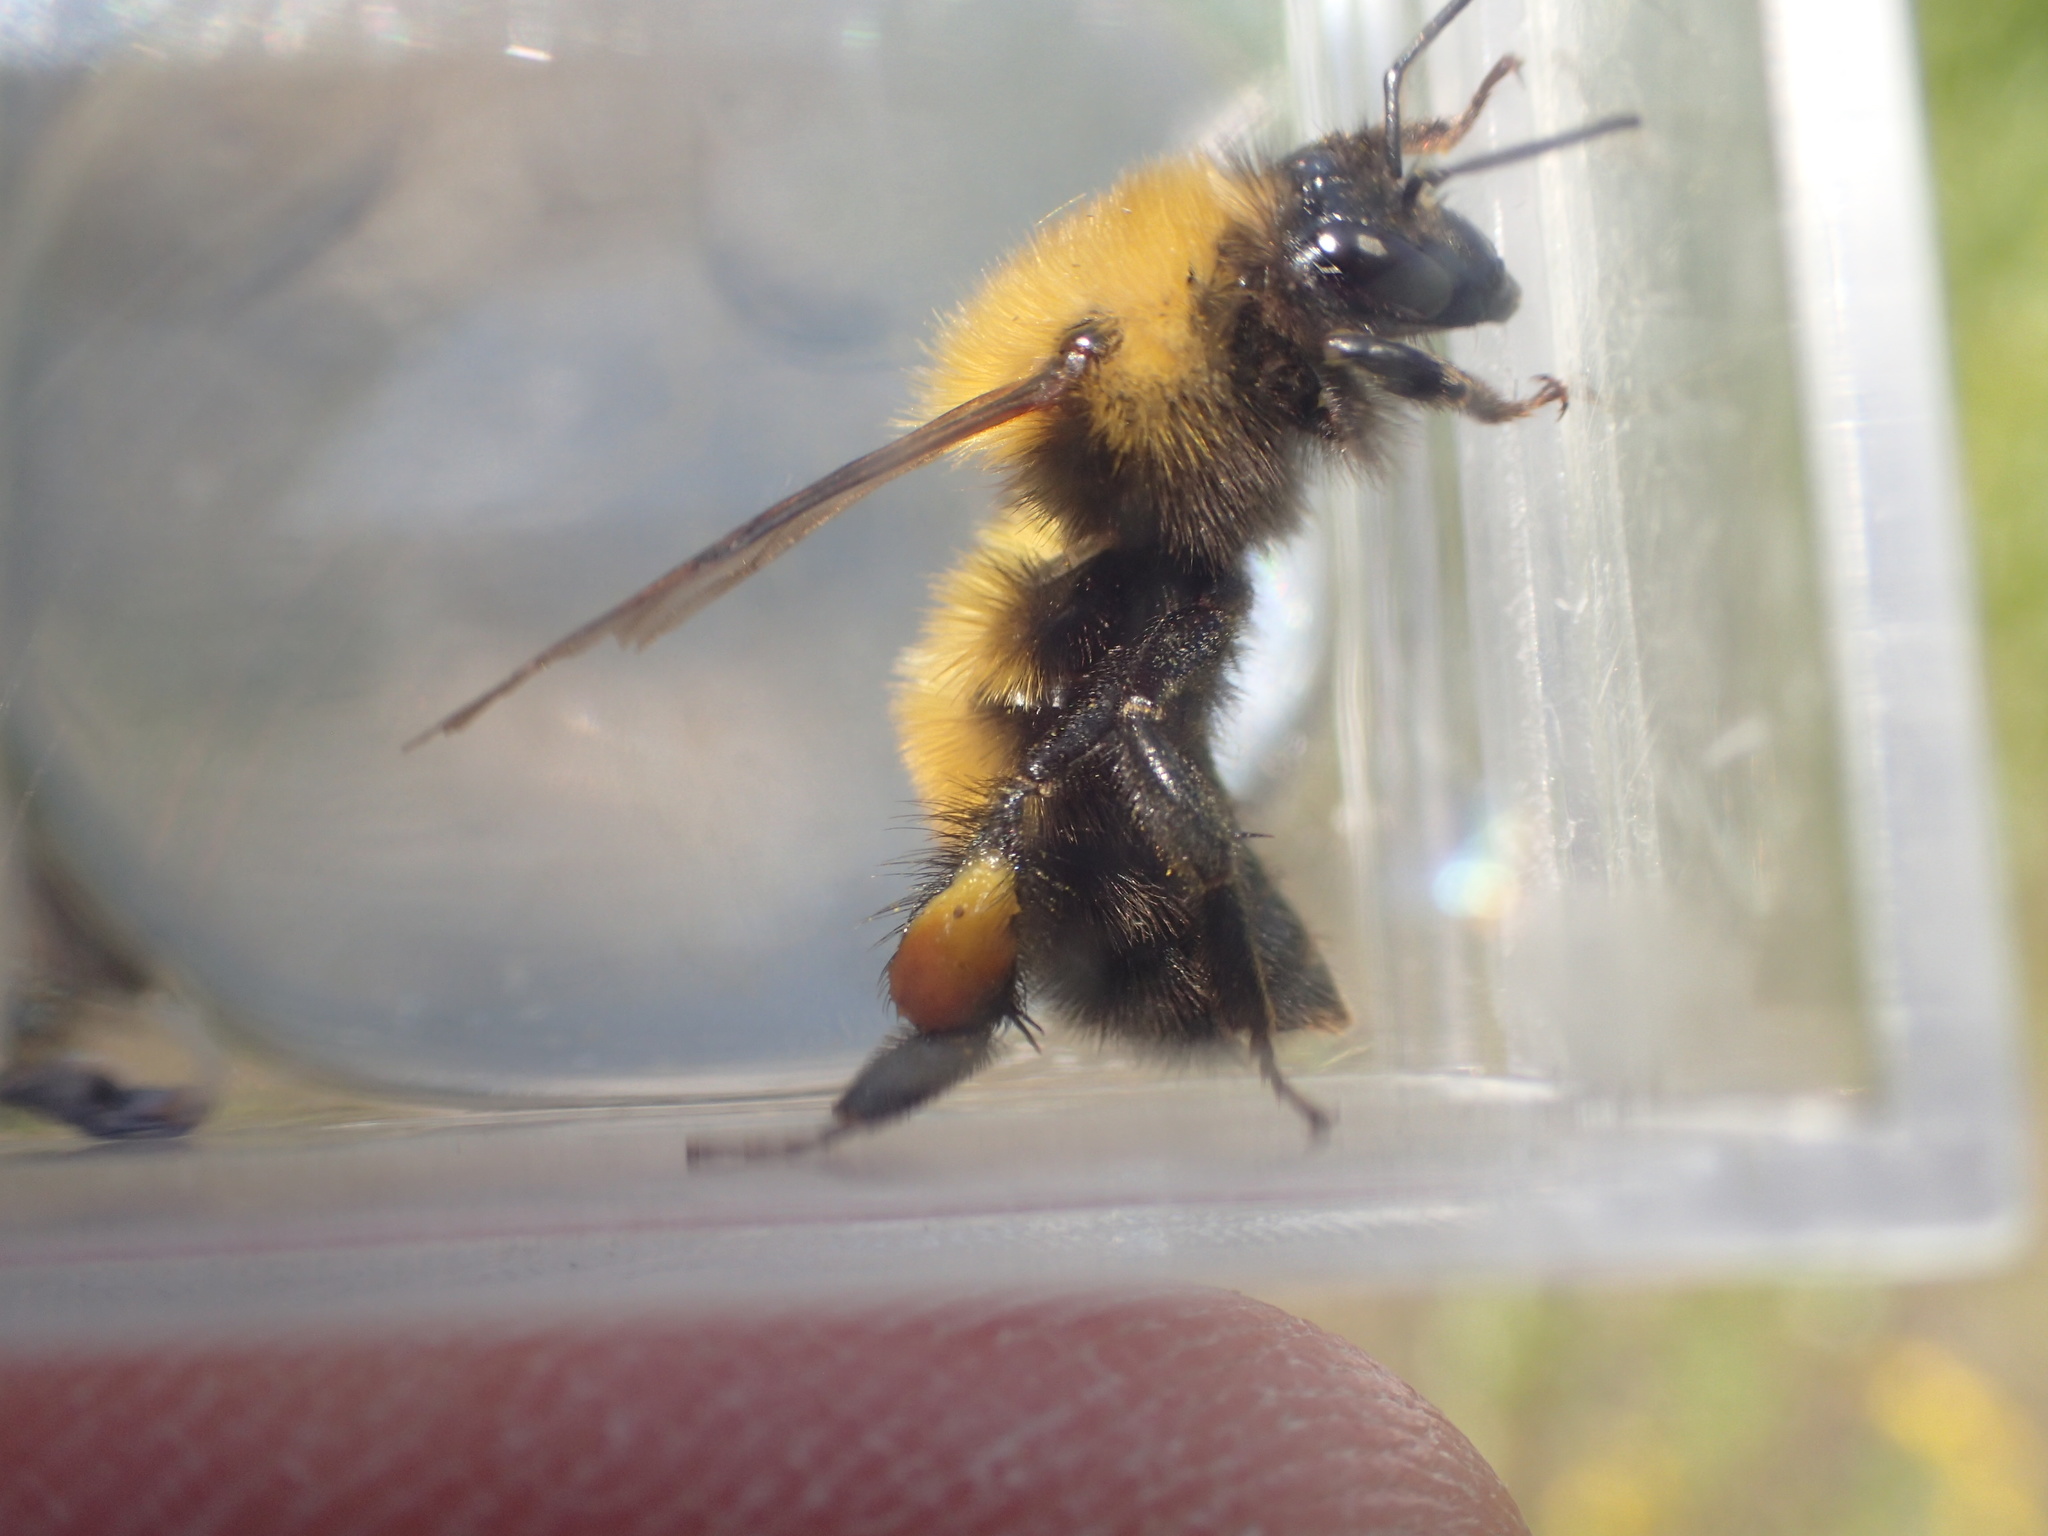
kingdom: Animalia
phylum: Arthropoda
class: Insecta
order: Hymenoptera
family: Apidae
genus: Bombus
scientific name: Bombus perplexus
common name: Confusing bumble bee
